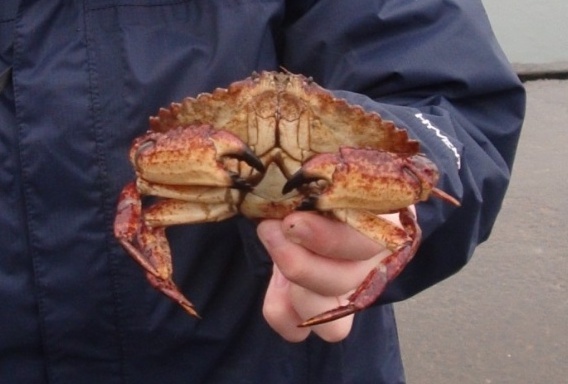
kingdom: Animalia
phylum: Arthropoda
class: Malacostraca
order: Decapoda
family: Cancridae
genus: Cancer
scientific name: Cancer productus
